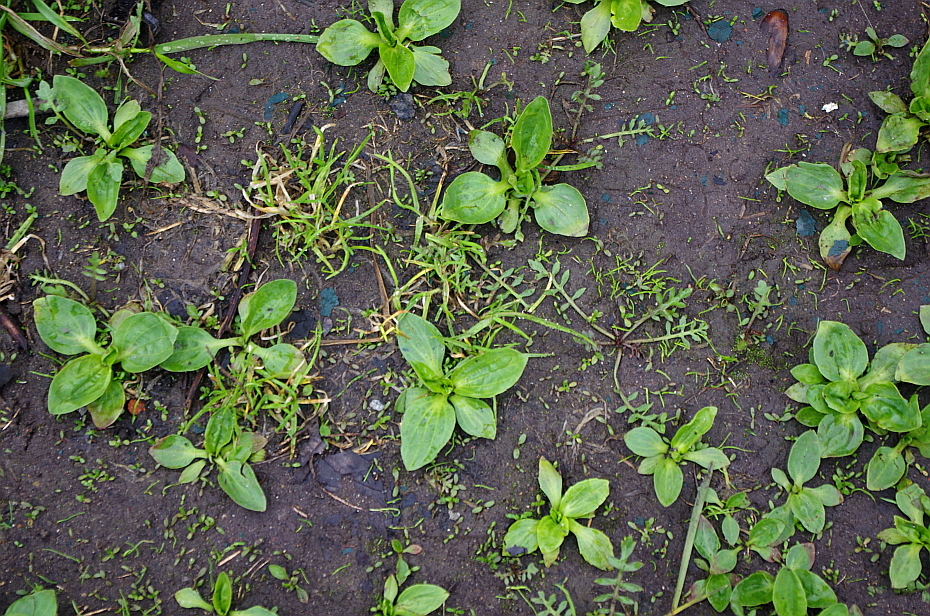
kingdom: Plantae
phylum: Tracheophyta
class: Magnoliopsida
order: Lamiales
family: Plantaginaceae
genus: Plantago
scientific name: Plantago major
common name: Common plantain
